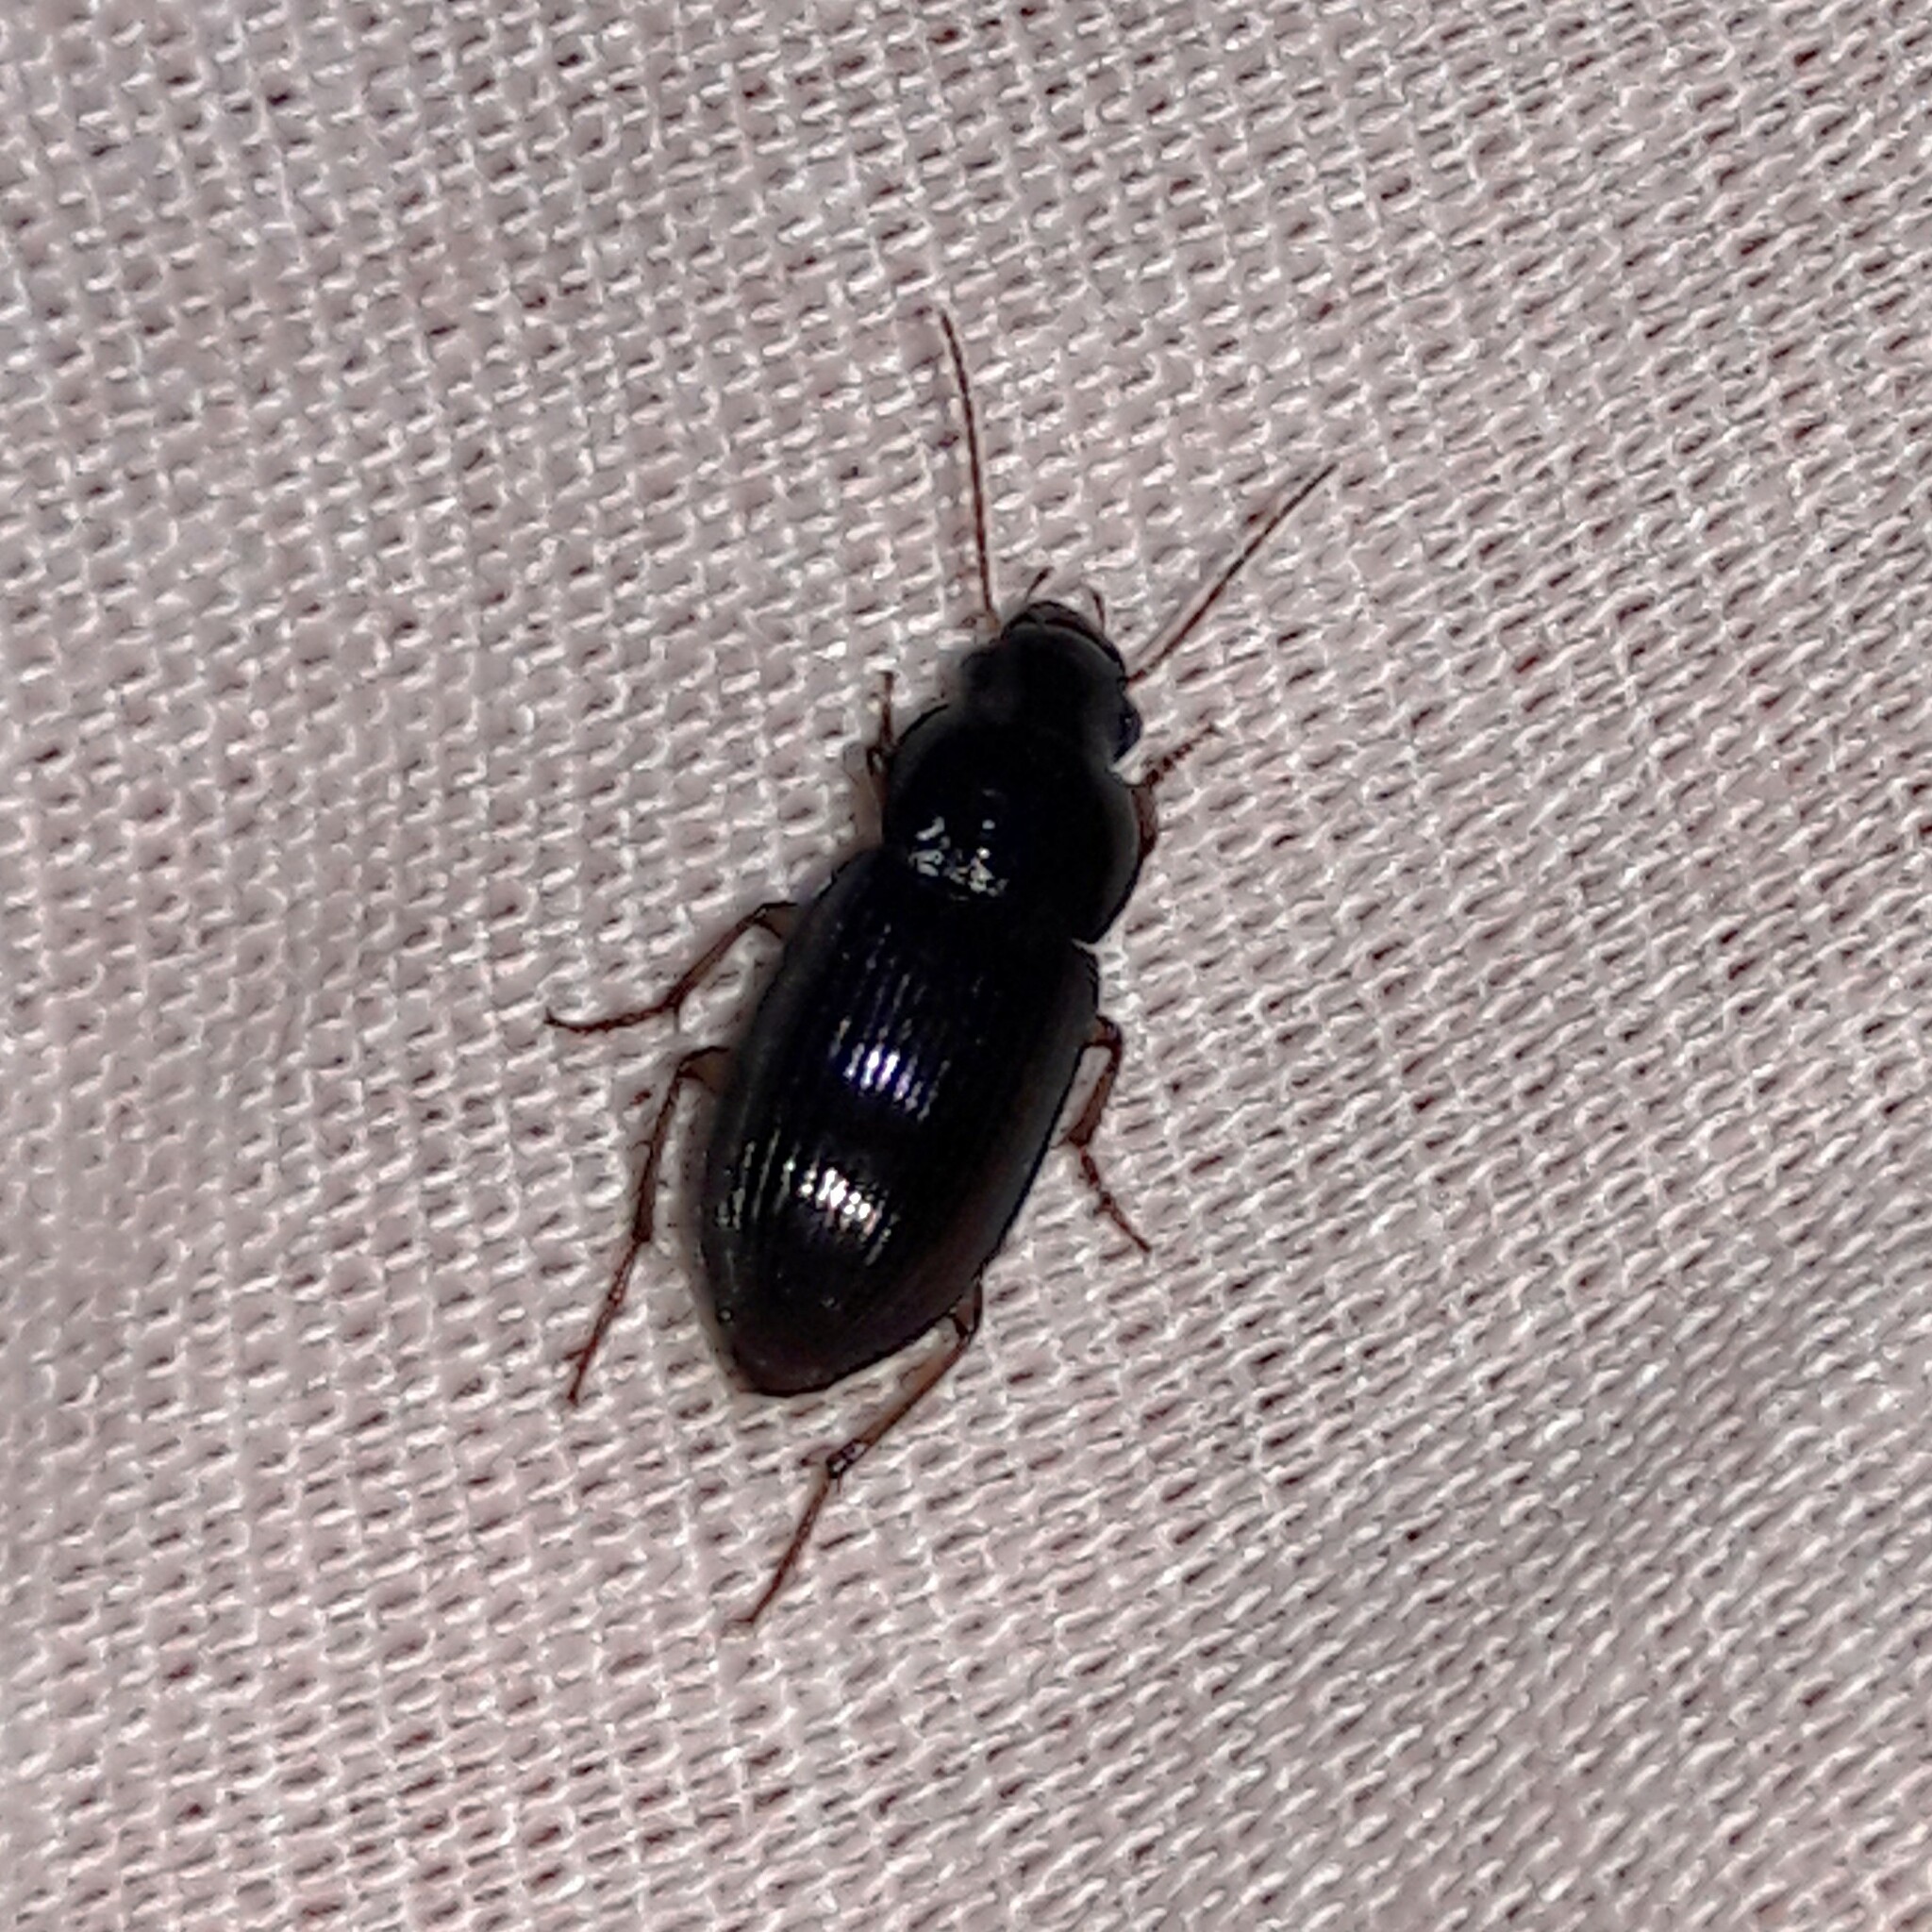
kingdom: Animalia
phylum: Arthropoda
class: Insecta
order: Coleoptera
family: Carabidae
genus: Selenophorus
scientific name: Selenophorus
